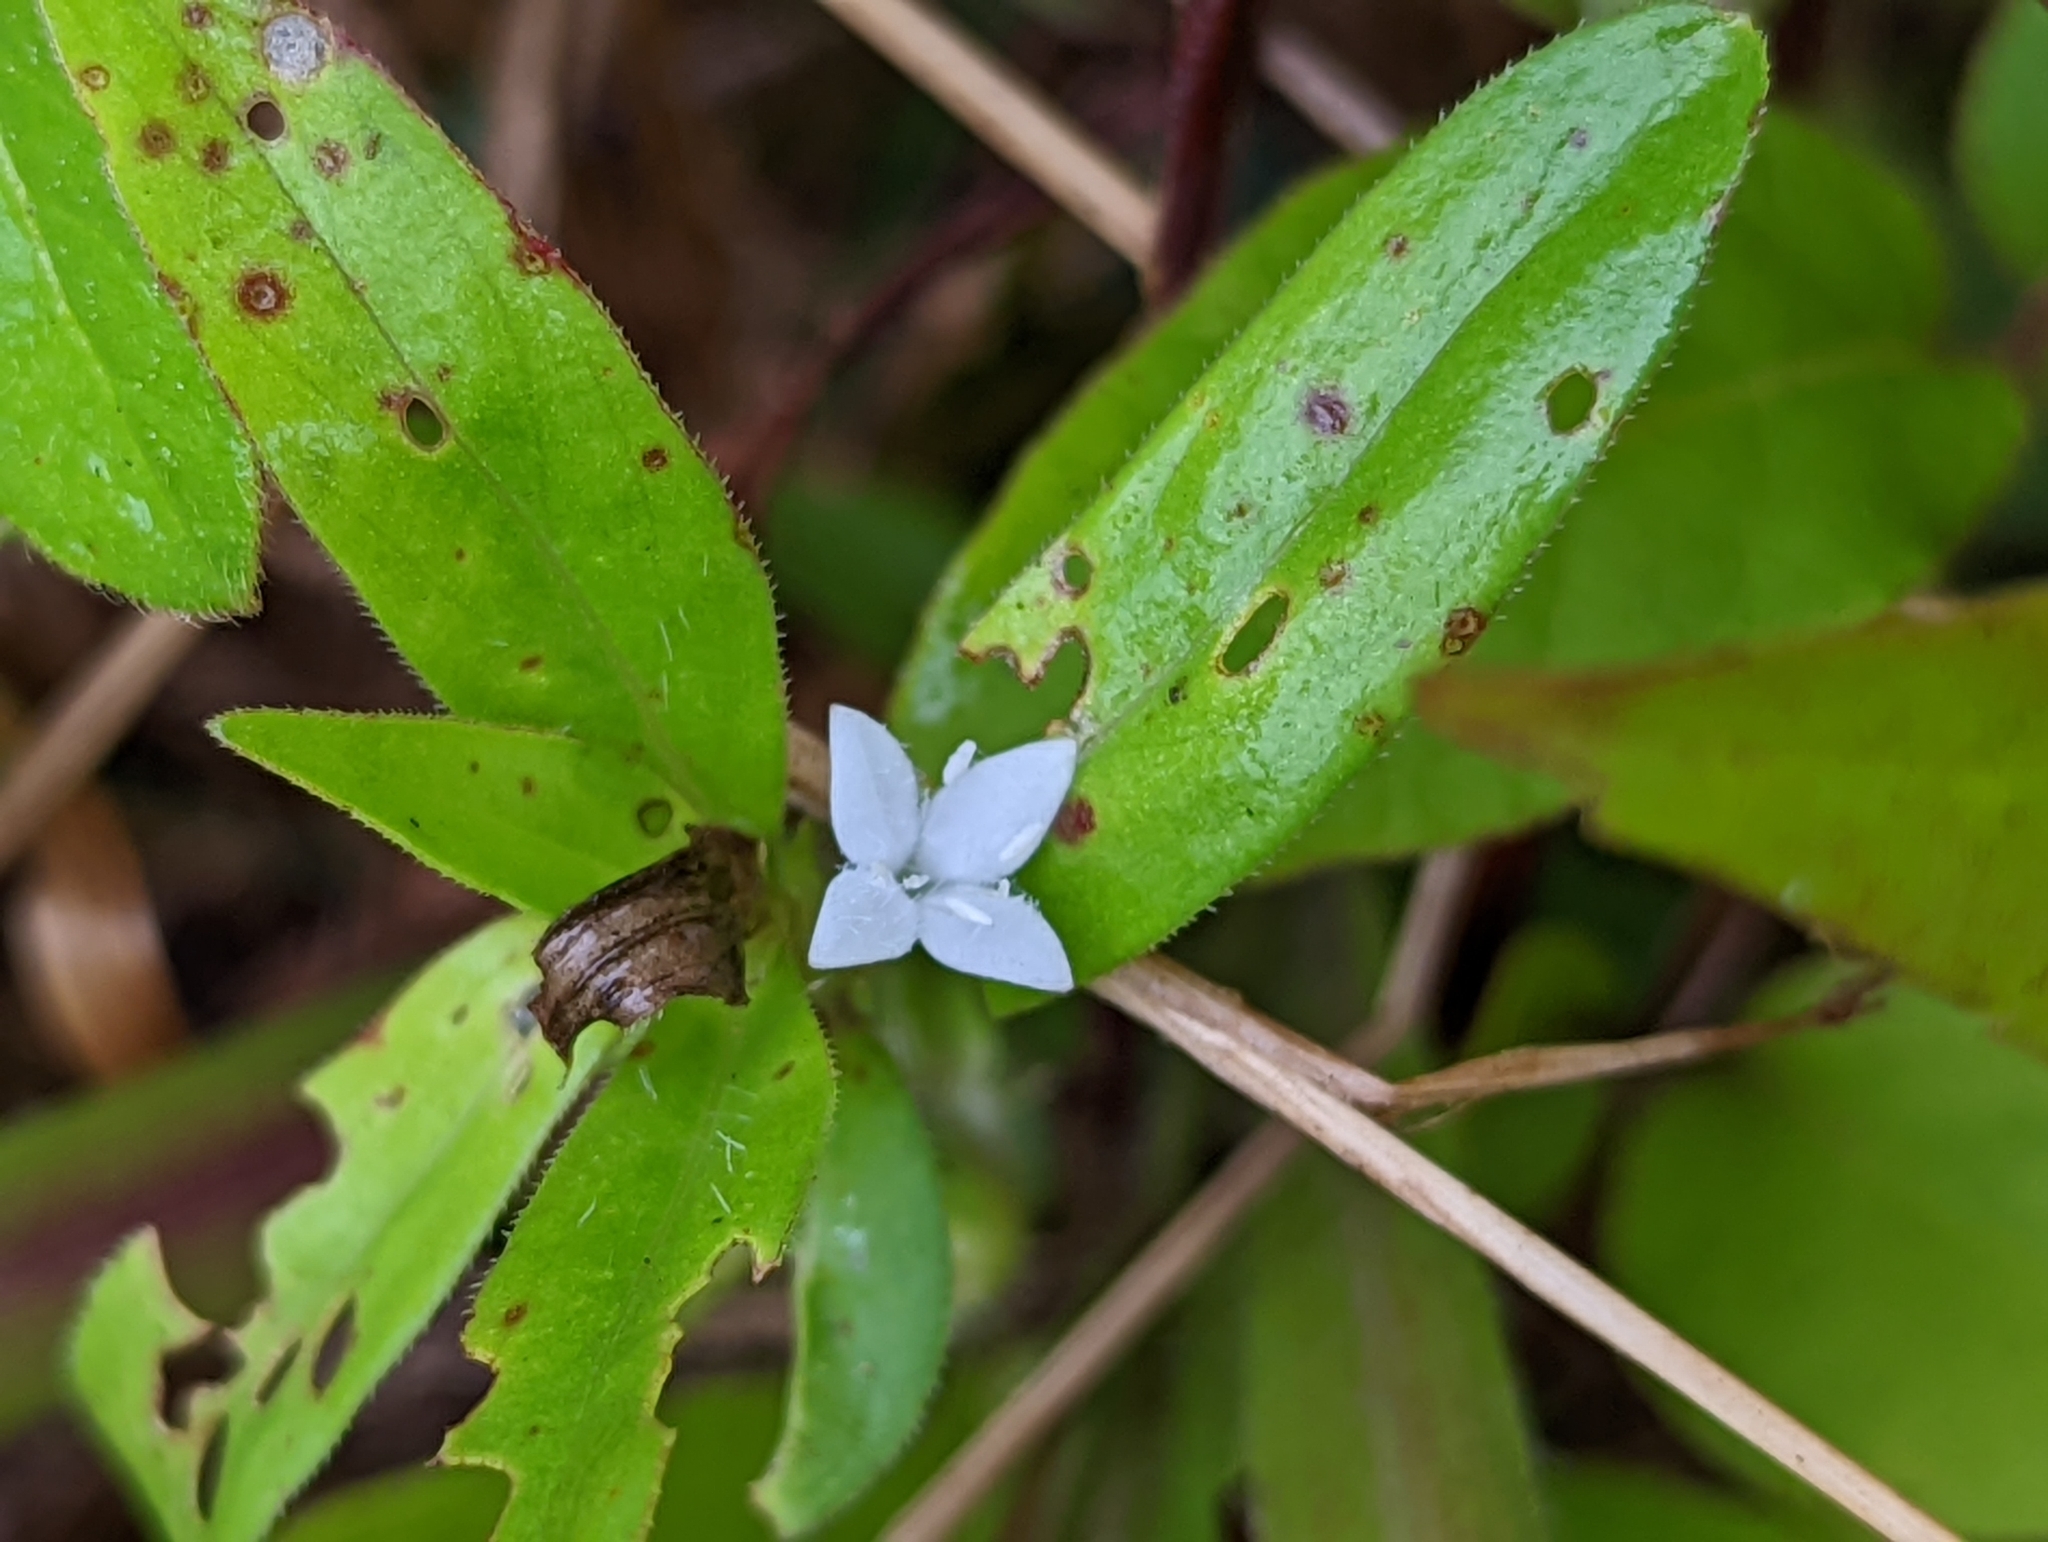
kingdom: Plantae
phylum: Tracheophyta
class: Magnoliopsida
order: Gentianales
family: Rubiaceae
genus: Diodia
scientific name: Diodia virginiana
